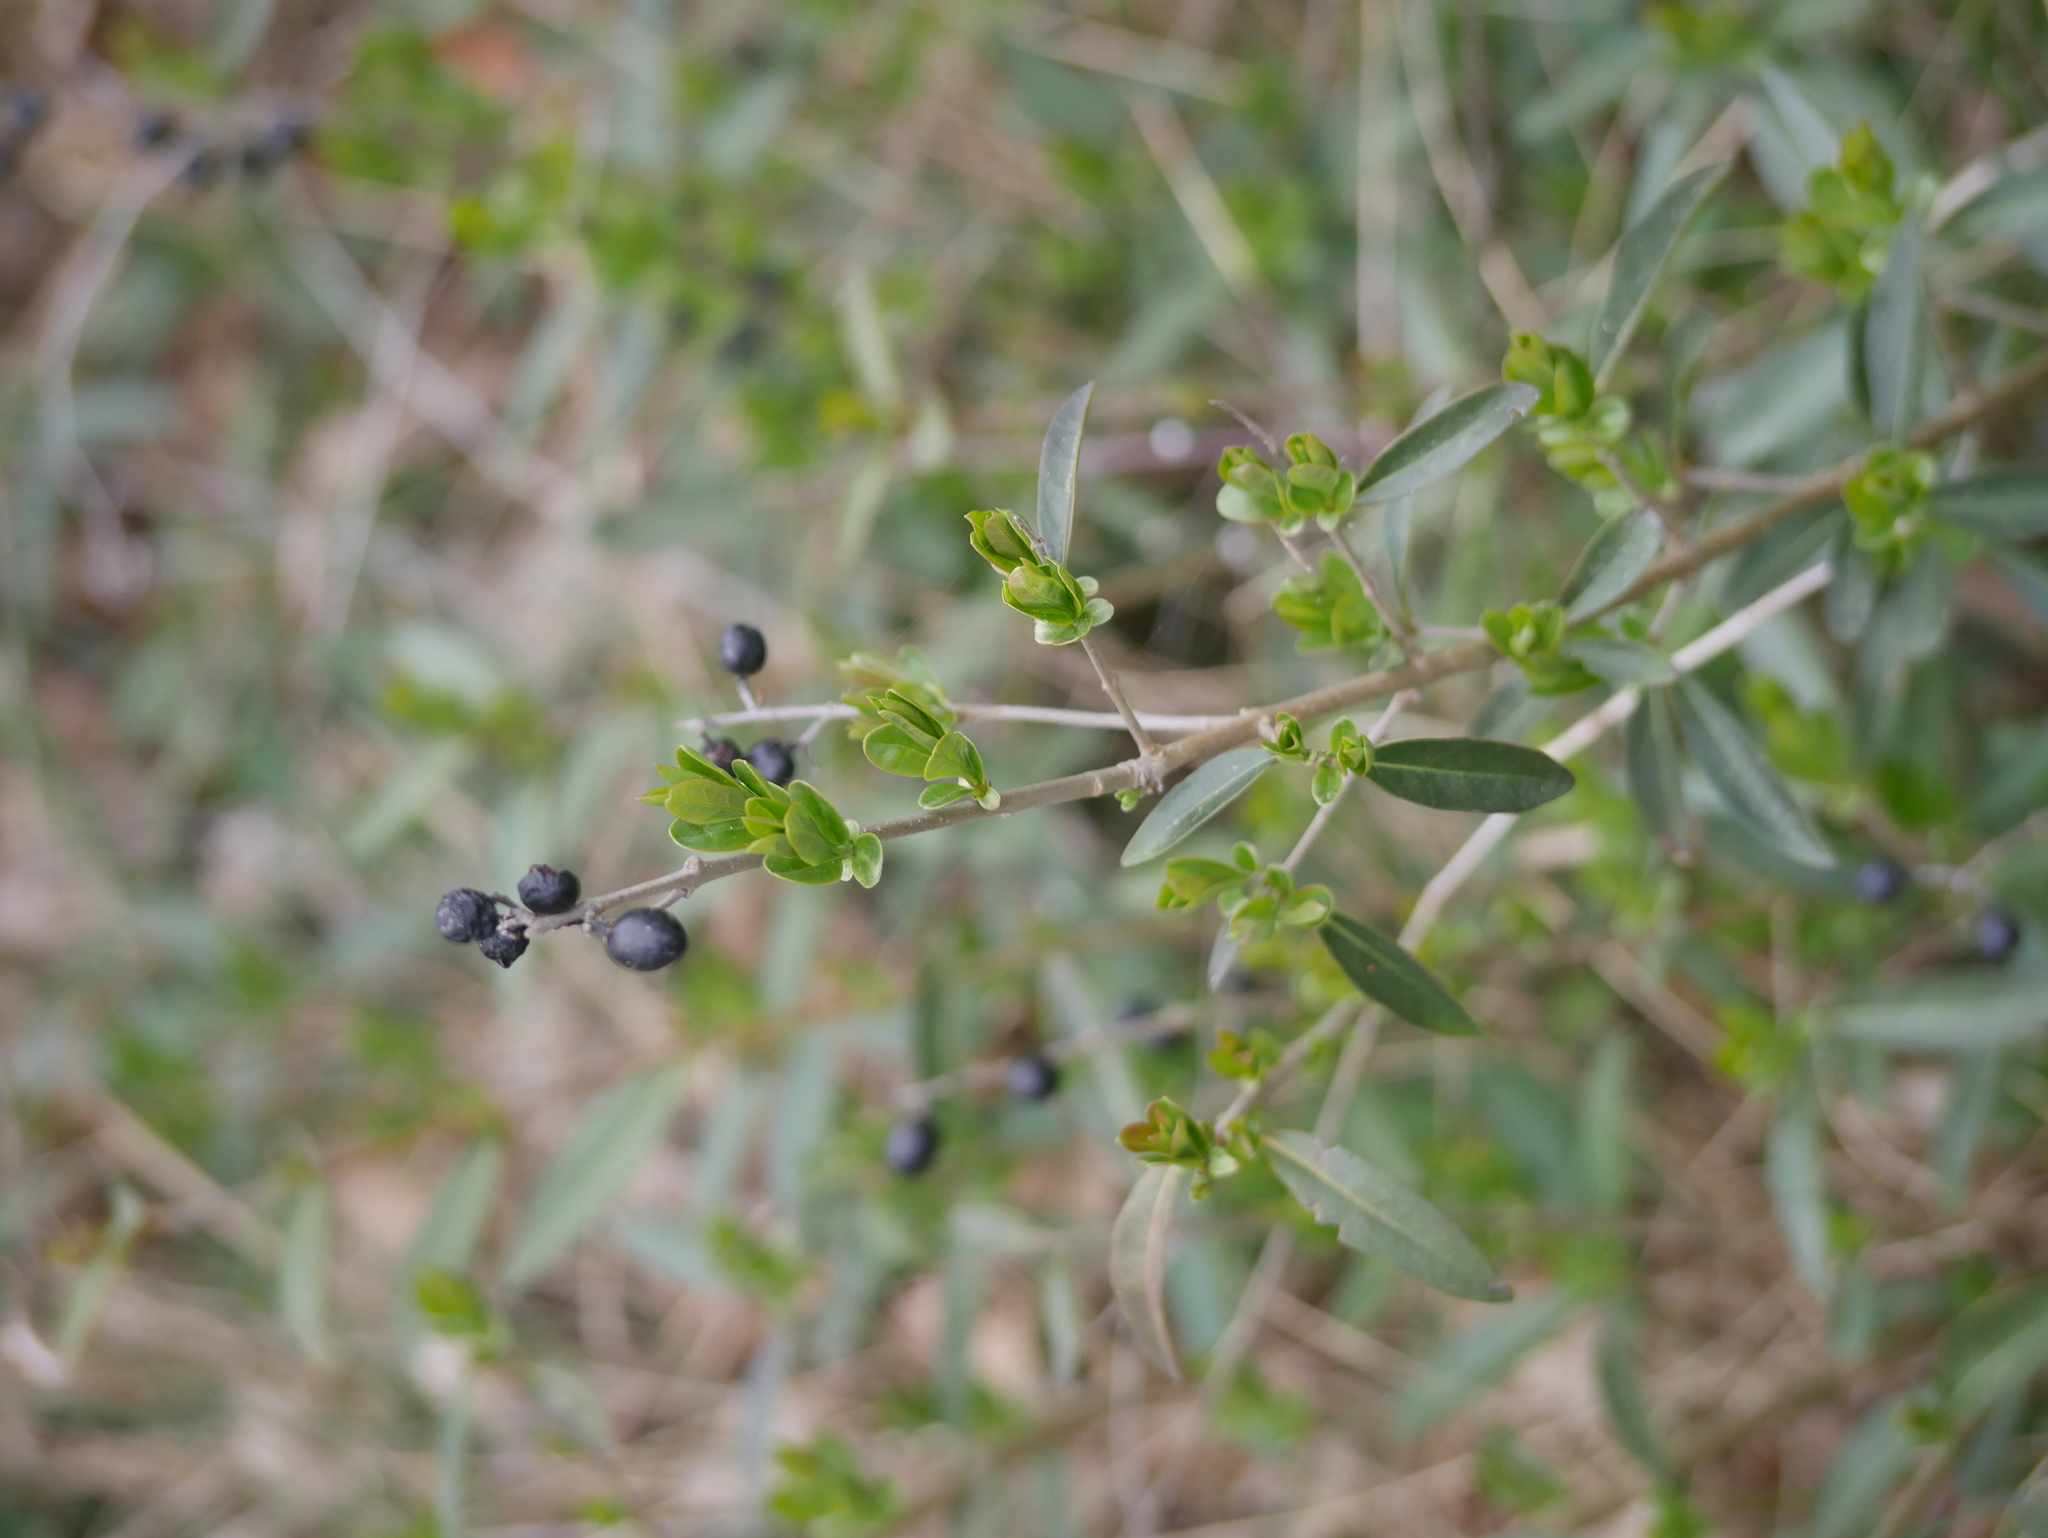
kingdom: Plantae
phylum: Tracheophyta
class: Magnoliopsida
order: Lamiales
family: Oleaceae
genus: Ligustrum
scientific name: Ligustrum vulgare
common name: Wild privet
